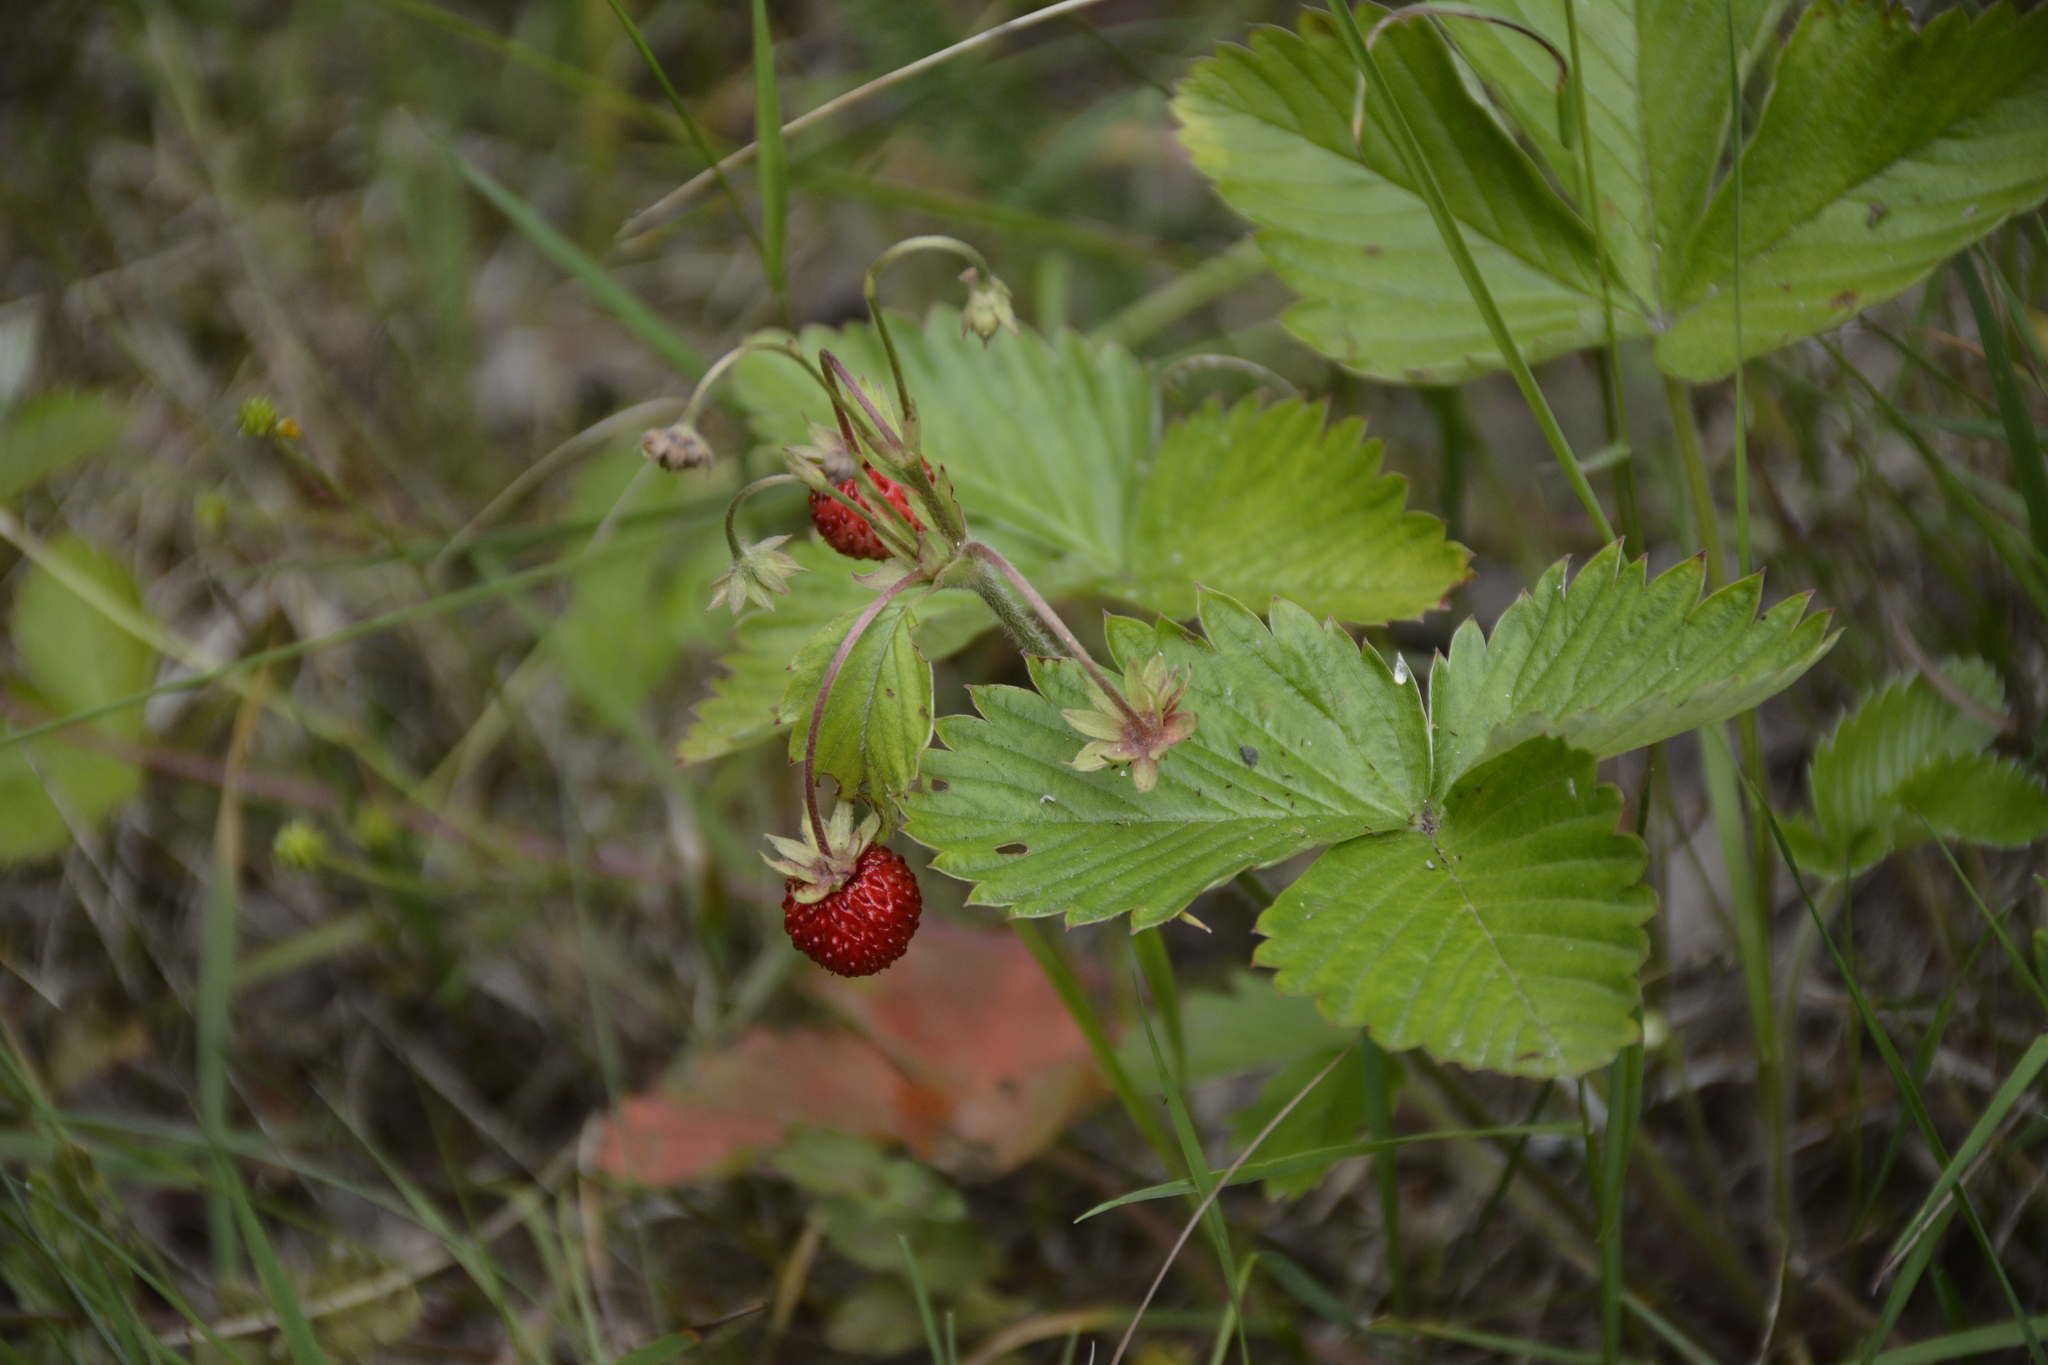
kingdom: Plantae
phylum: Tracheophyta
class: Magnoliopsida
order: Rosales
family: Rosaceae
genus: Fragaria
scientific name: Fragaria vesca
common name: Wild strawberry
